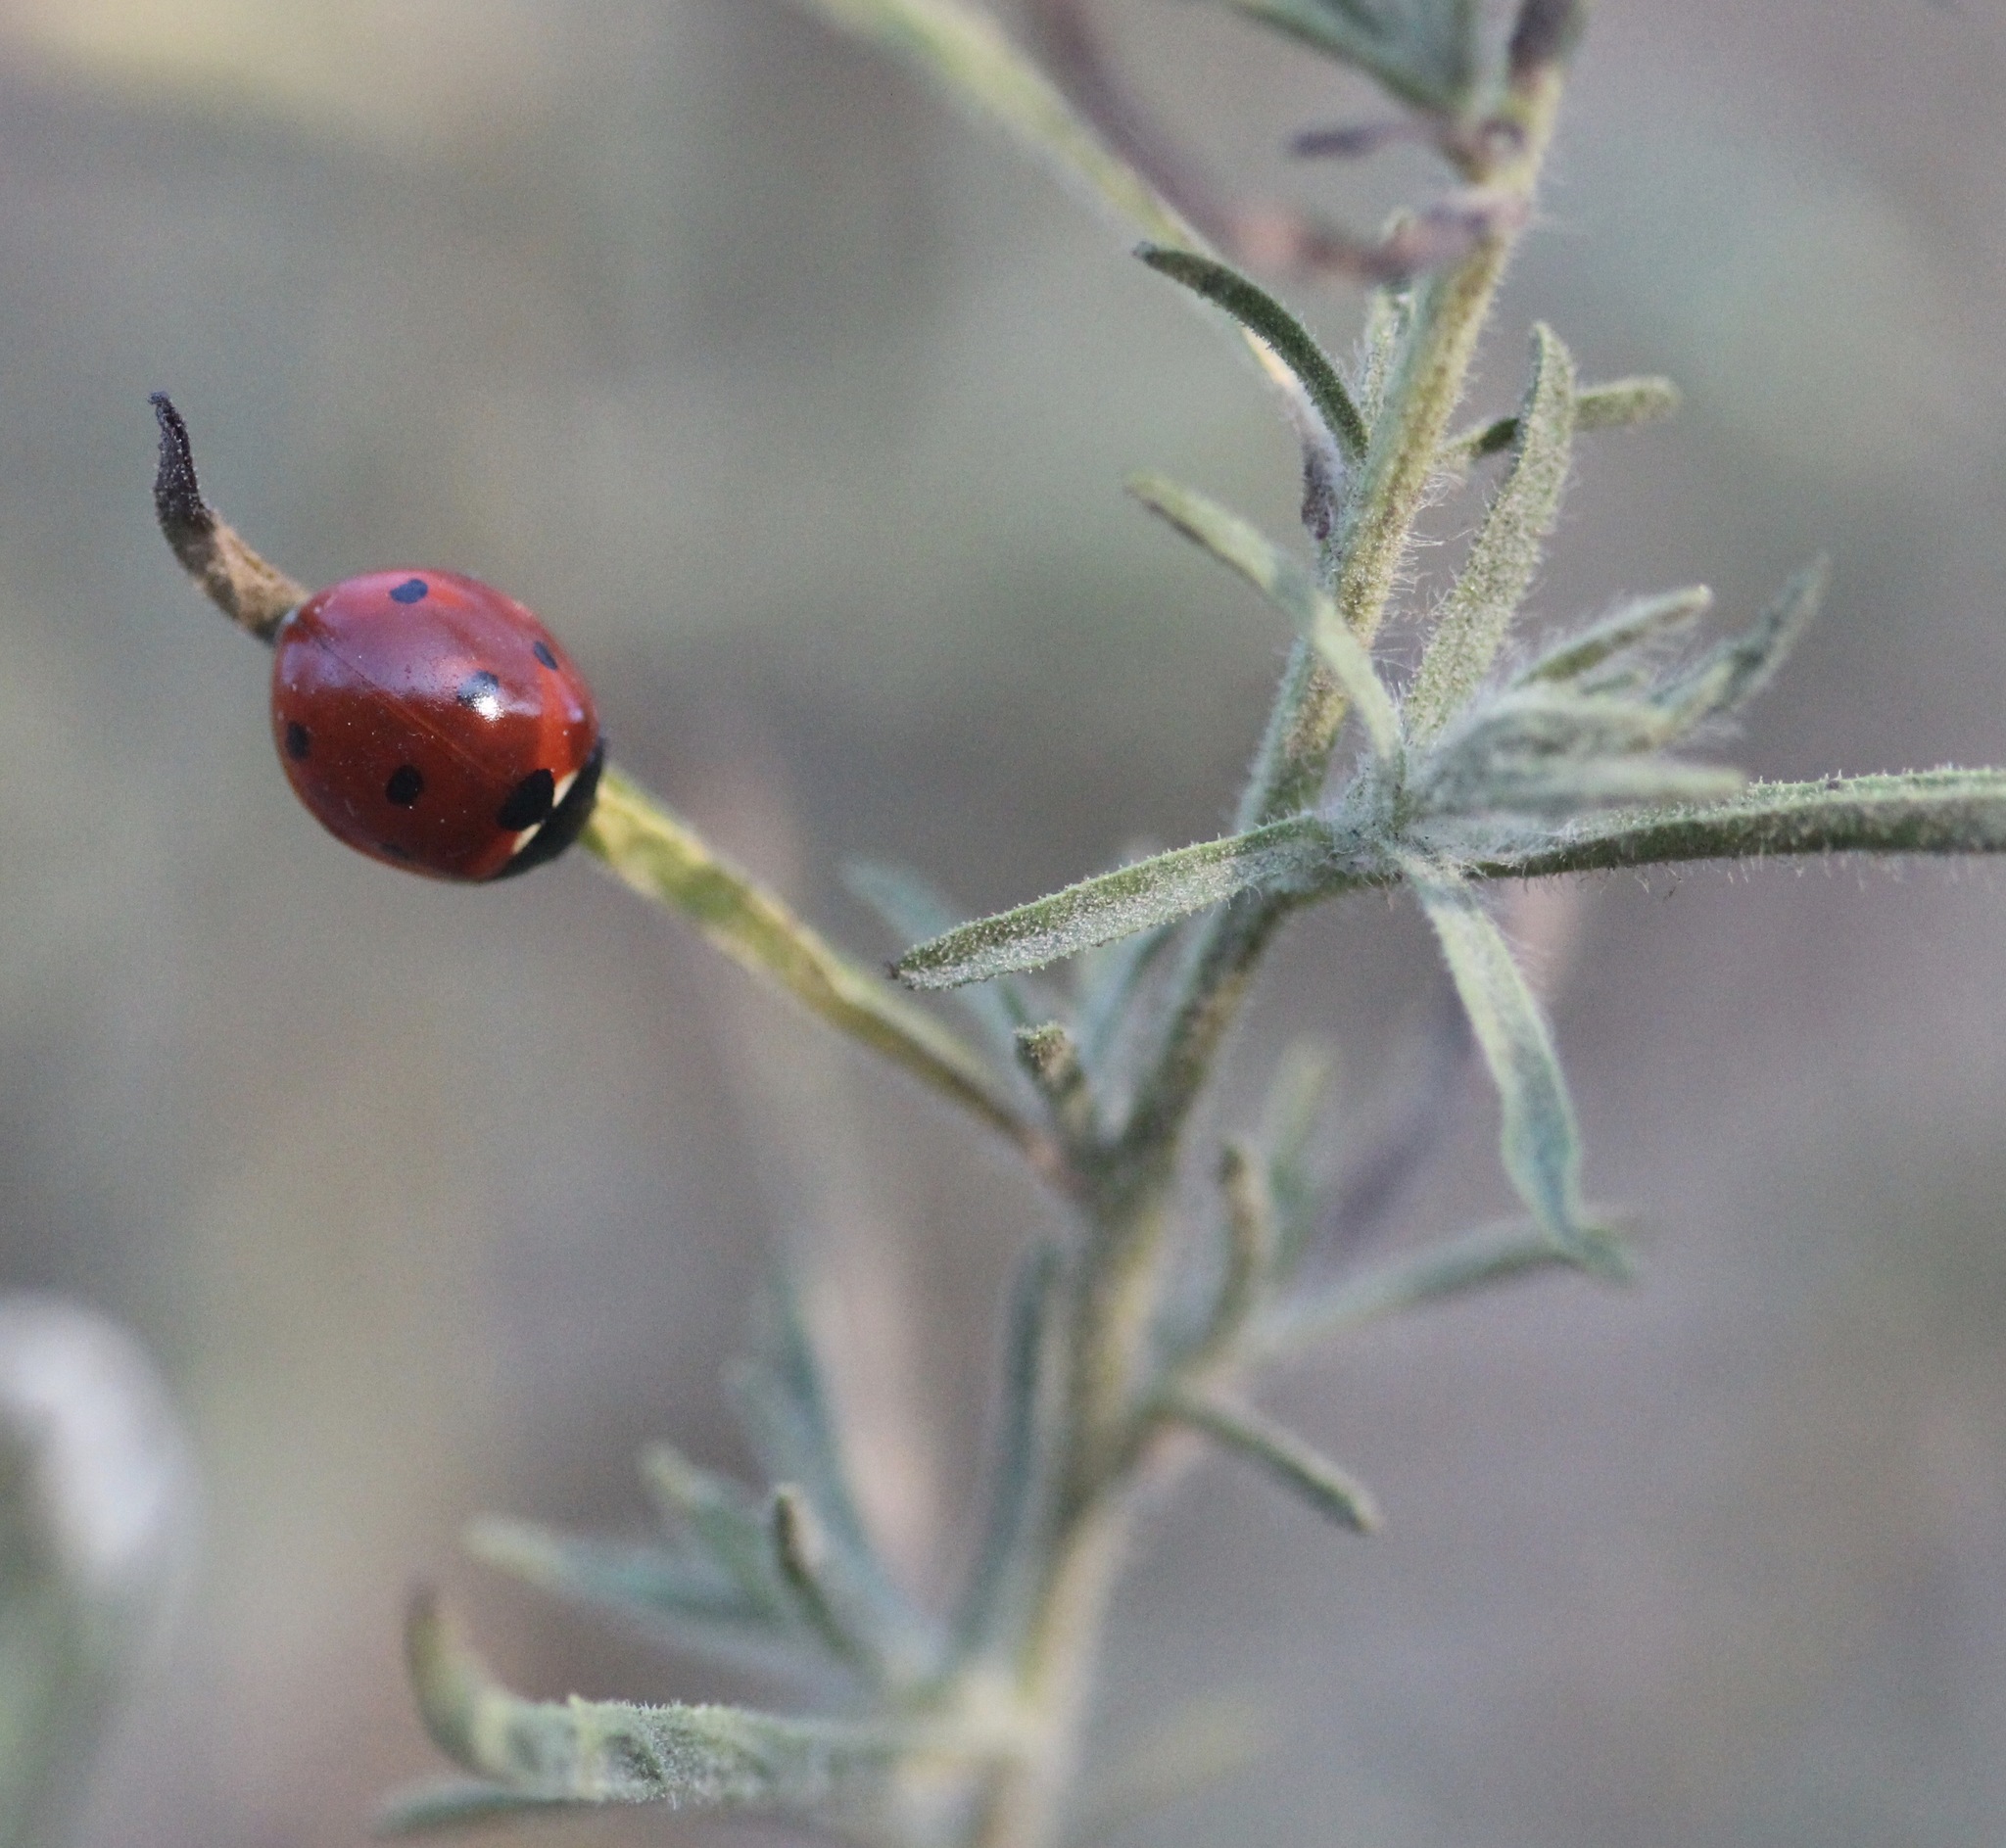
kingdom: Animalia
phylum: Arthropoda
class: Insecta
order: Coleoptera
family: Coccinellidae
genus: Coccinella
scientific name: Coccinella septempunctata
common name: Sevenspotted lady beetle
